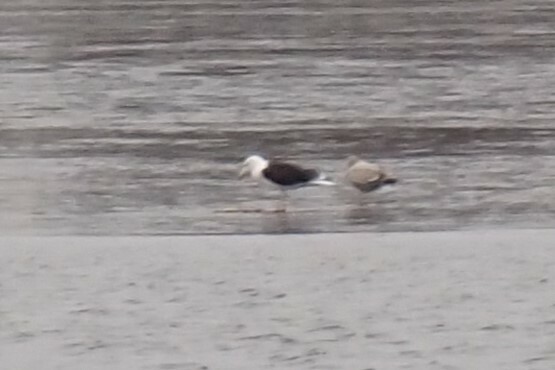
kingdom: Animalia
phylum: Chordata
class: Aves
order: Charadriiformes
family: Laridae
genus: Larus
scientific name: Larus marinus
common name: Great black-backed gull
